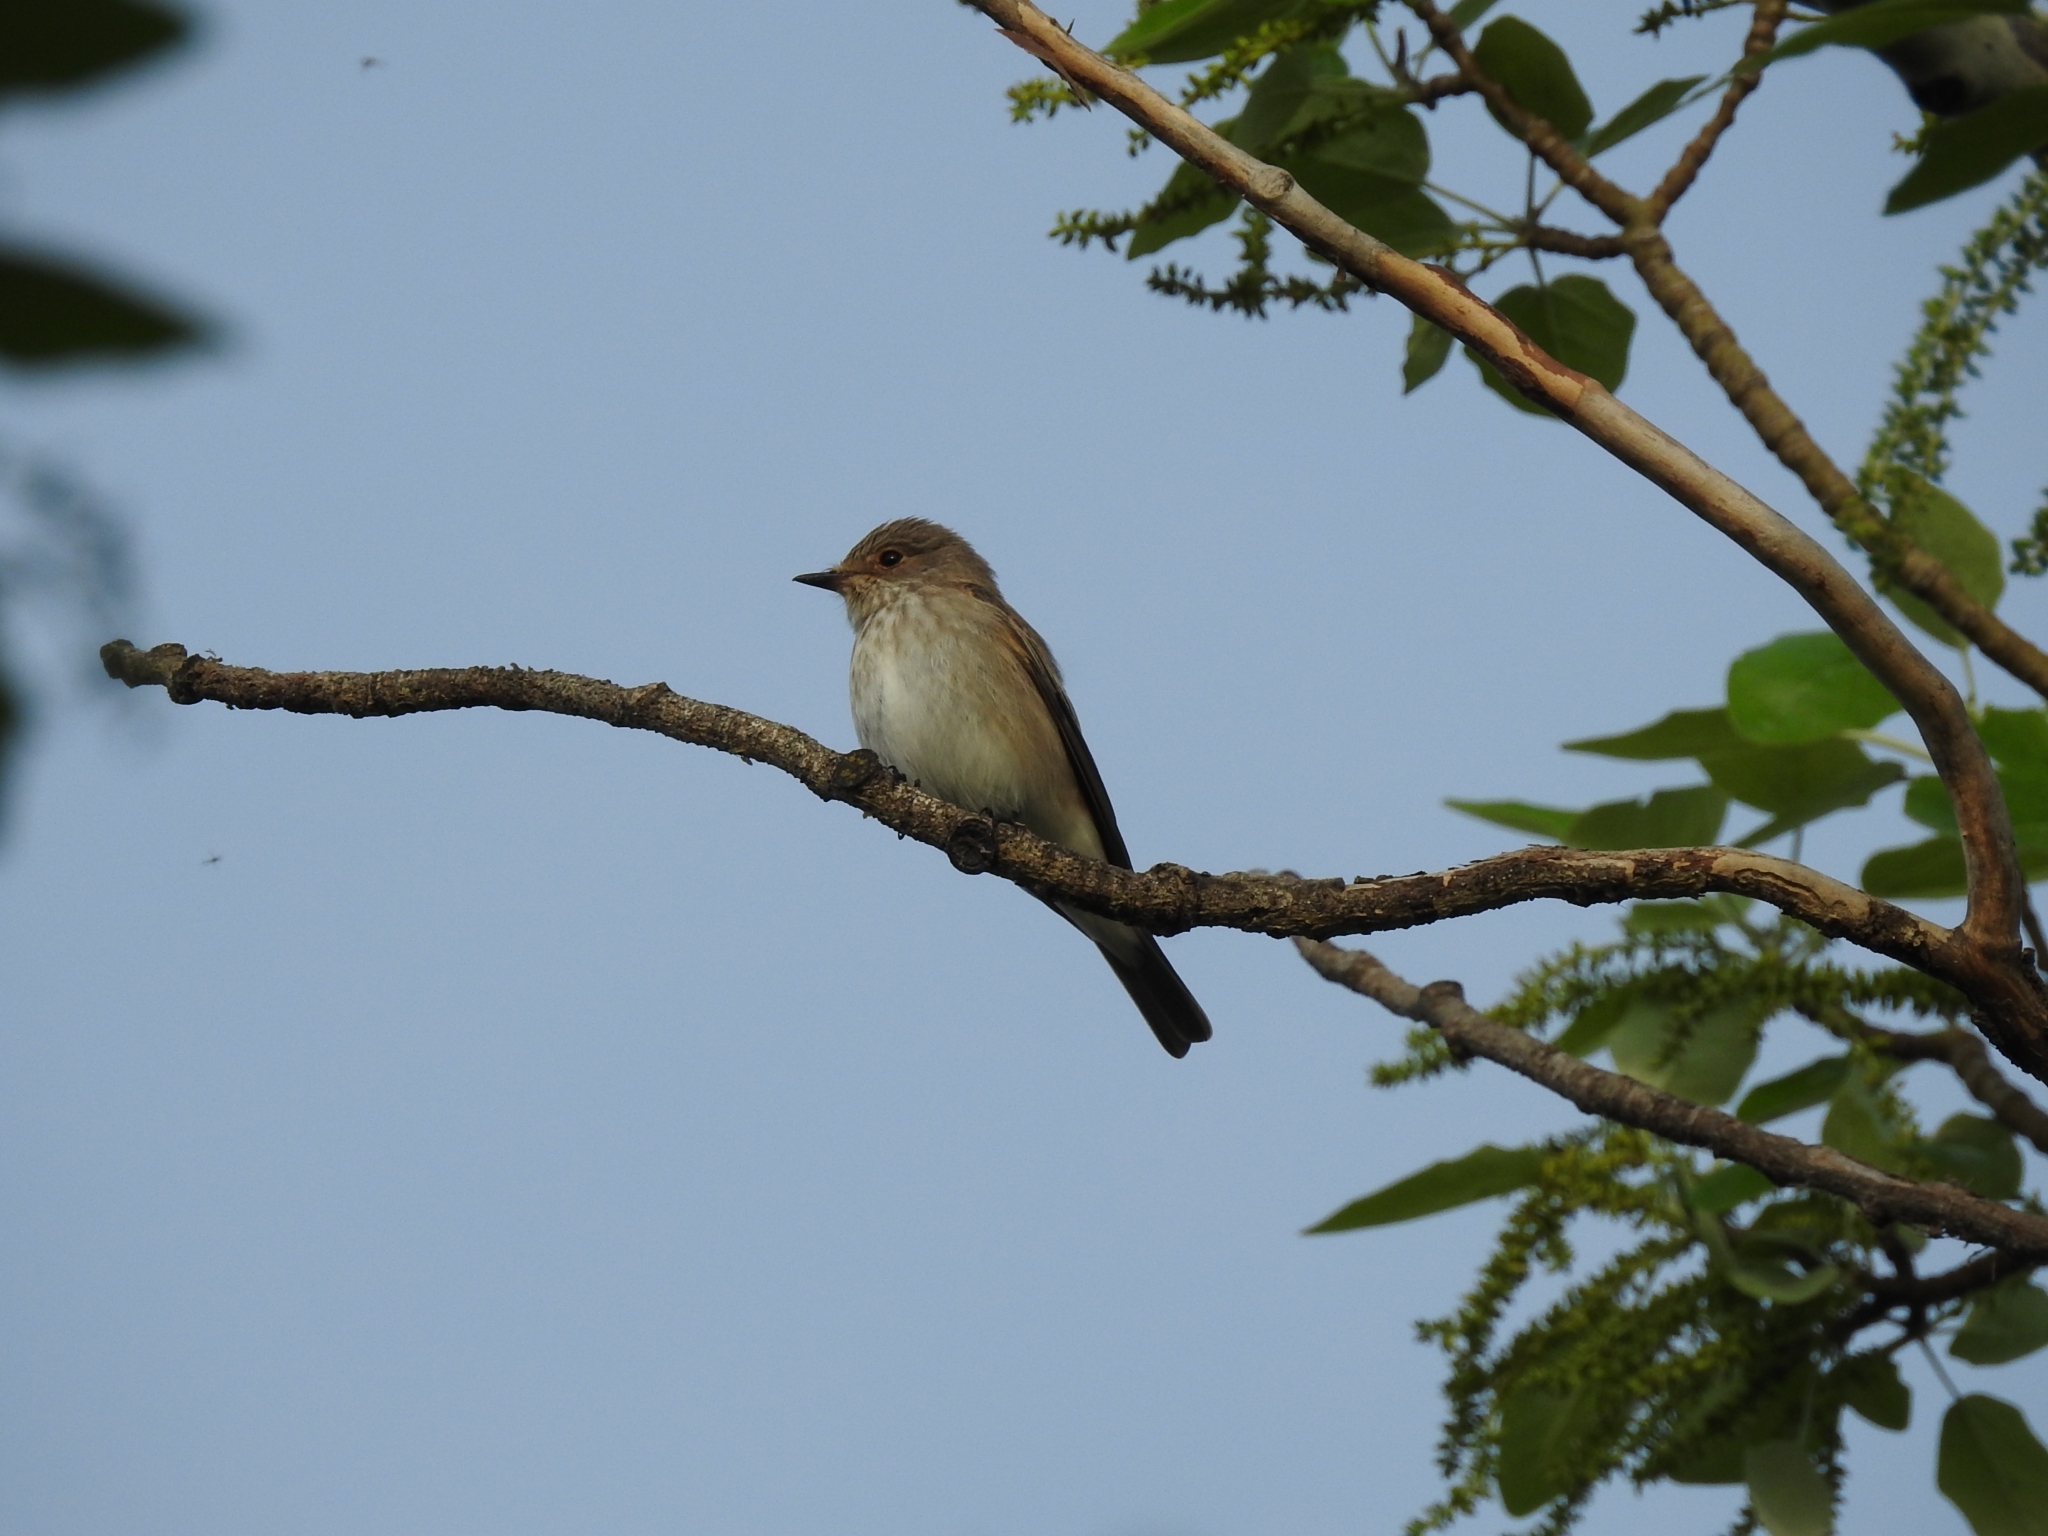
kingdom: Animalia
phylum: Chordata
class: Aves
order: Passeriformes
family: Muscicapidae
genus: Muscicapa
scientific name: Muscicapa striata
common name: Spotted flycatcher
